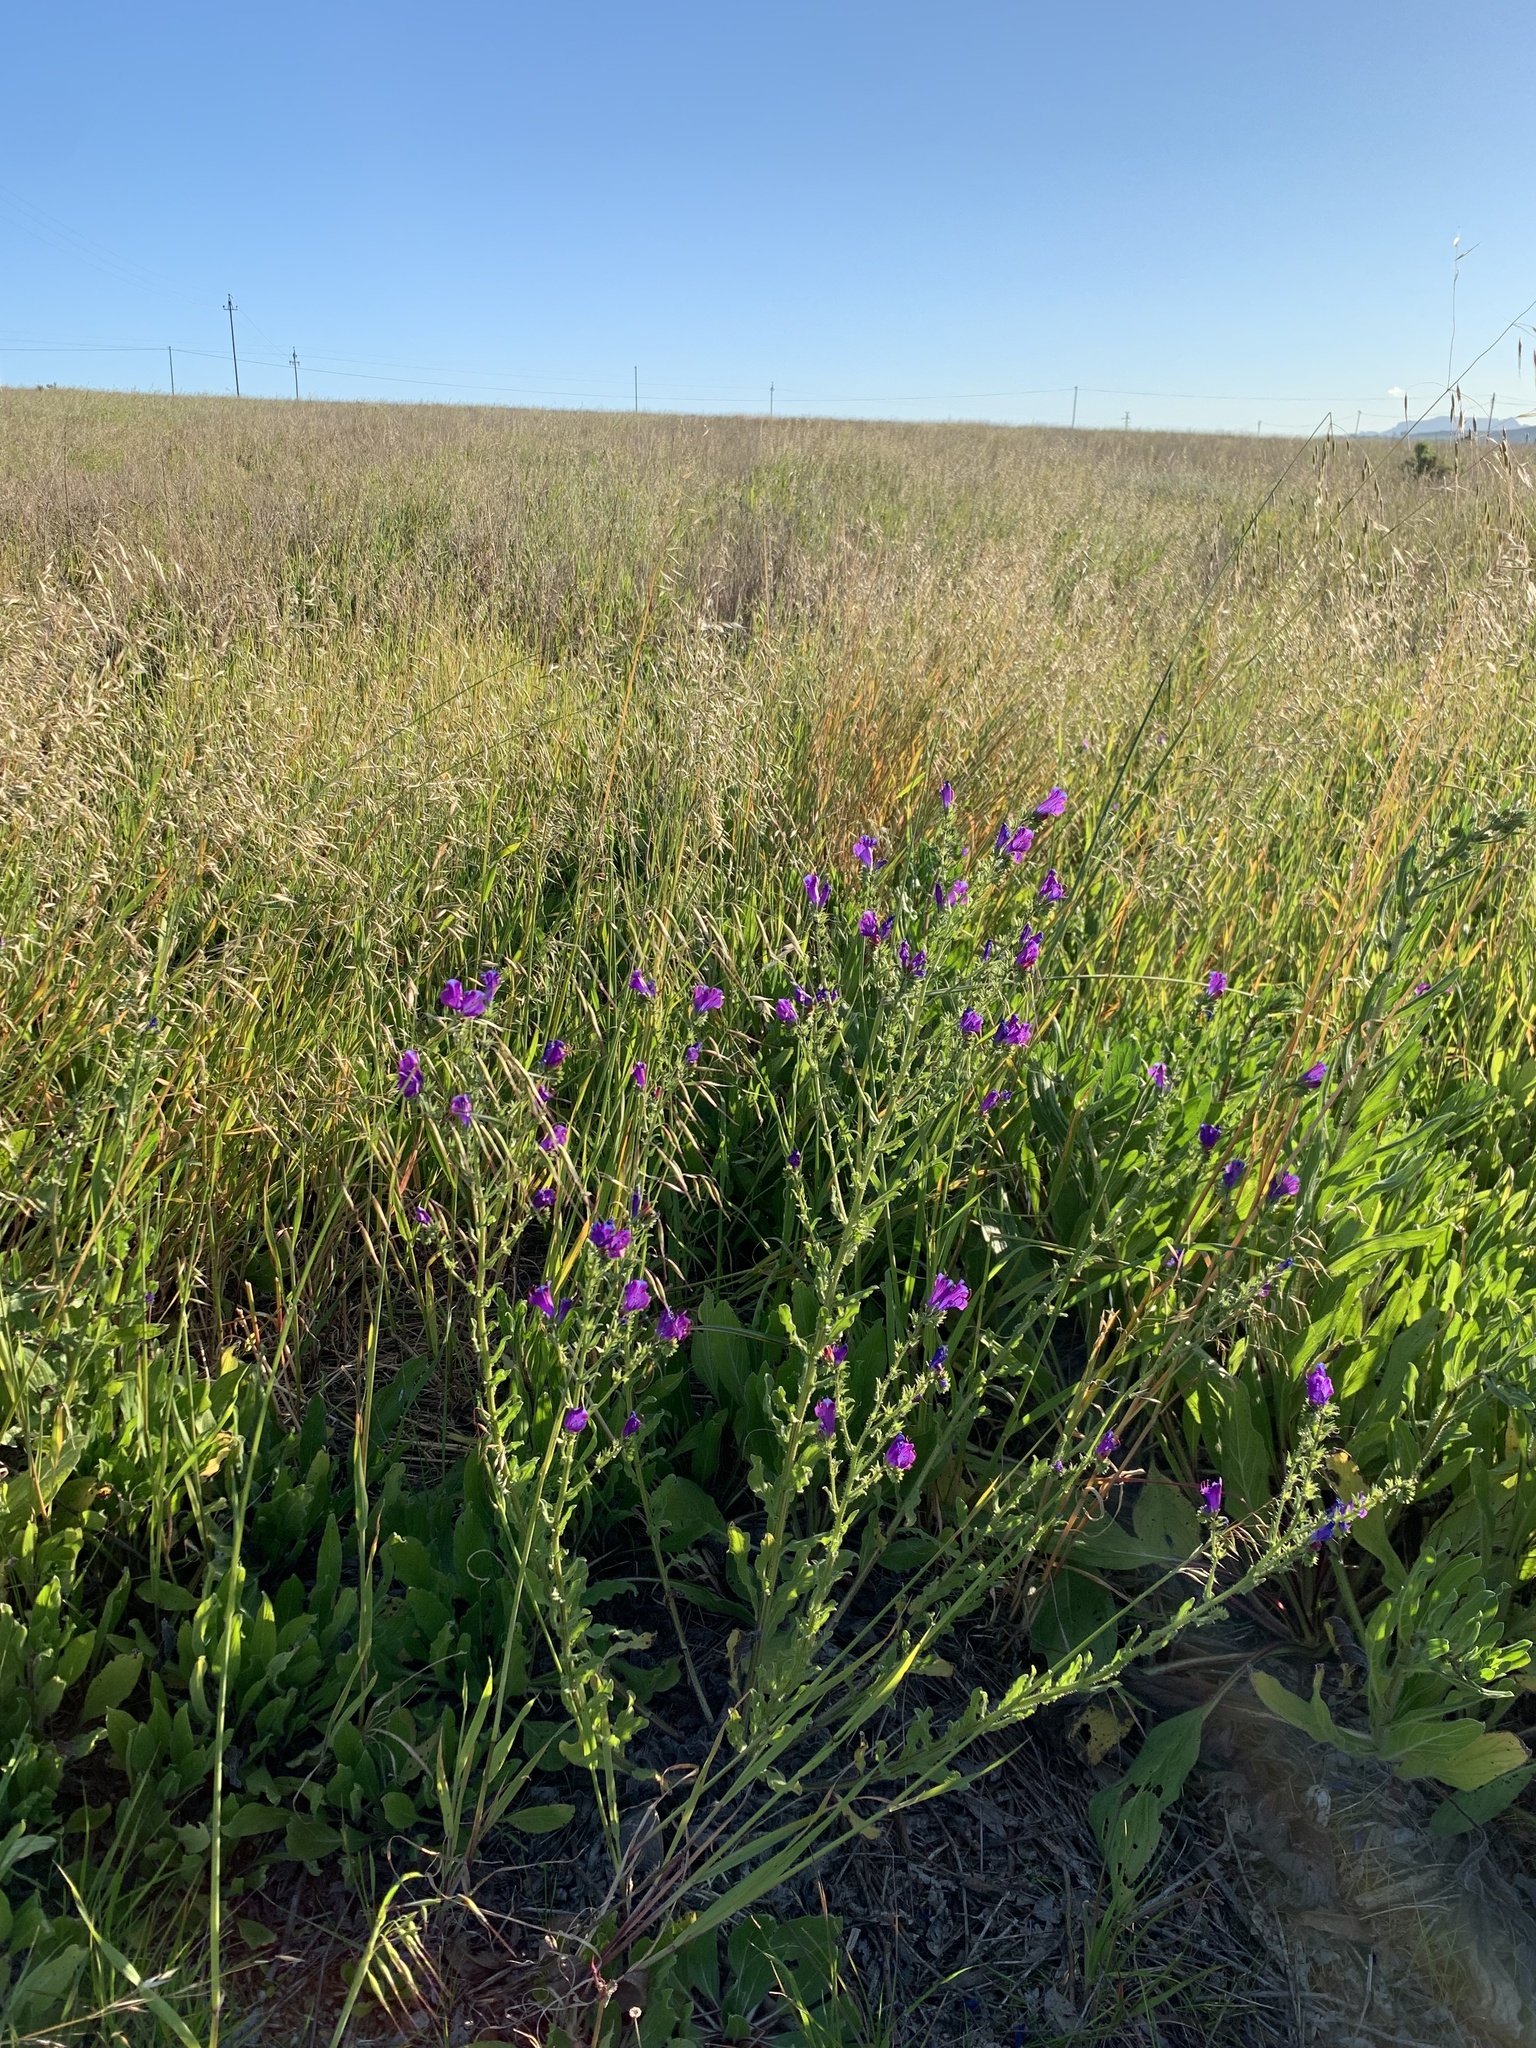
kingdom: Plantae
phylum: Tracheophyta
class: Magnoliopsida
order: Boraginales
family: Boraginaceae
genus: Echium
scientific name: Echium plantagineum
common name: Purple viper's-bugloss
